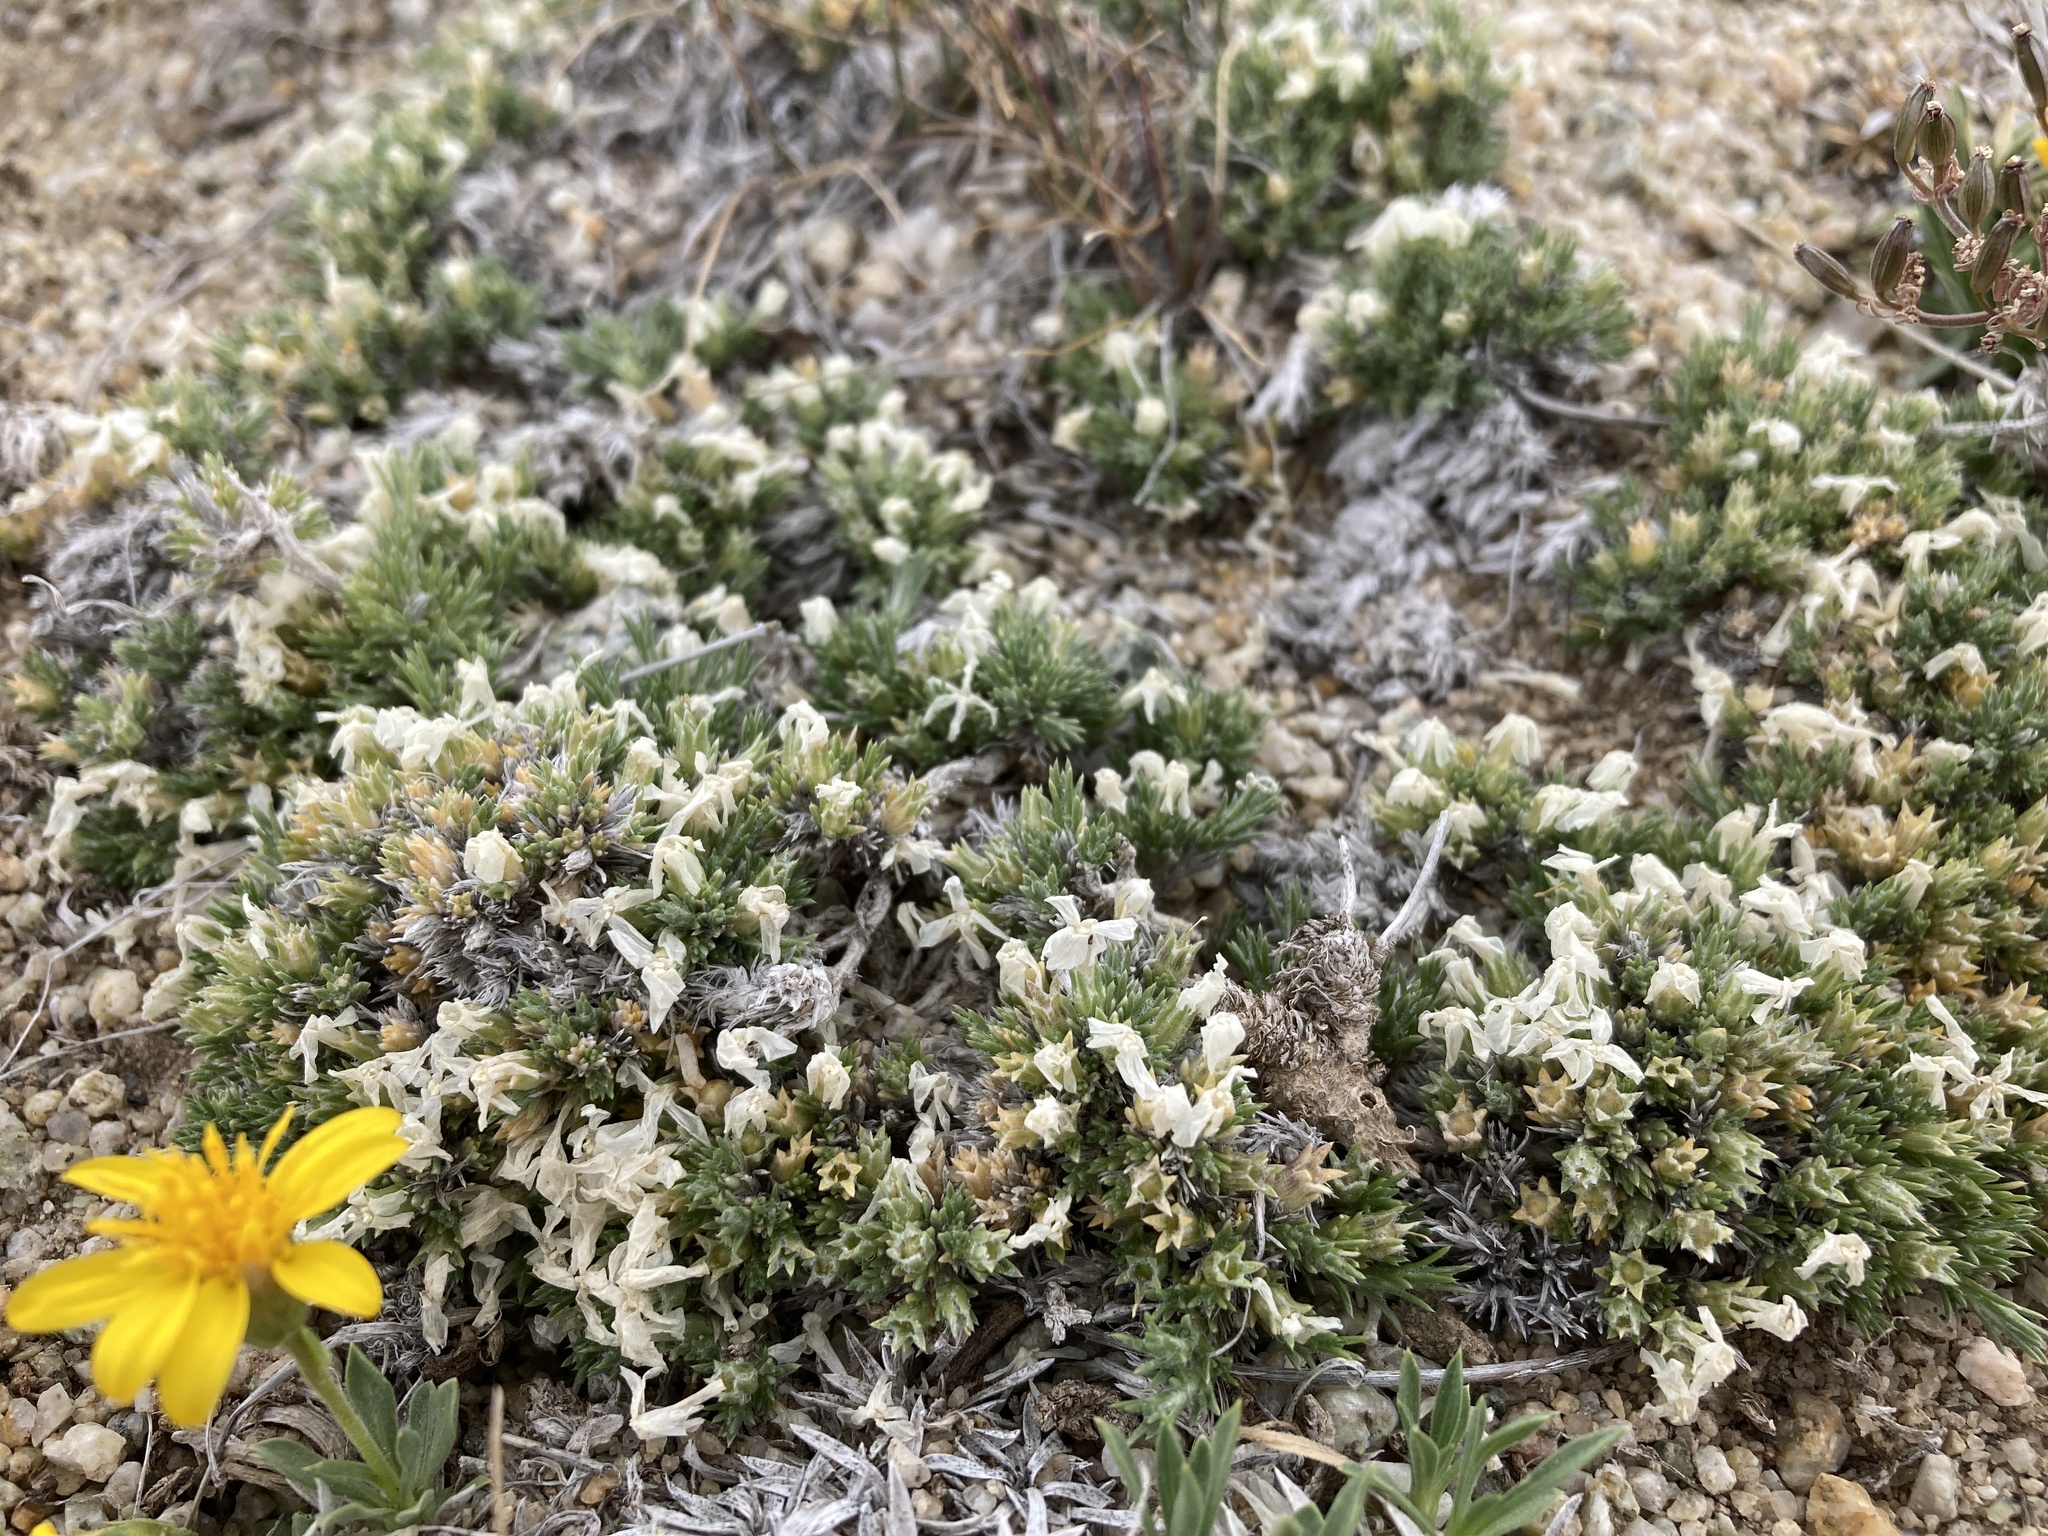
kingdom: Plantae
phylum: Tracheophyta
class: Magnoliopsida
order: Ericales
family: Polemoniaceae
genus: Phlox
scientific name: Phlox hoodii
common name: Moss phlox
